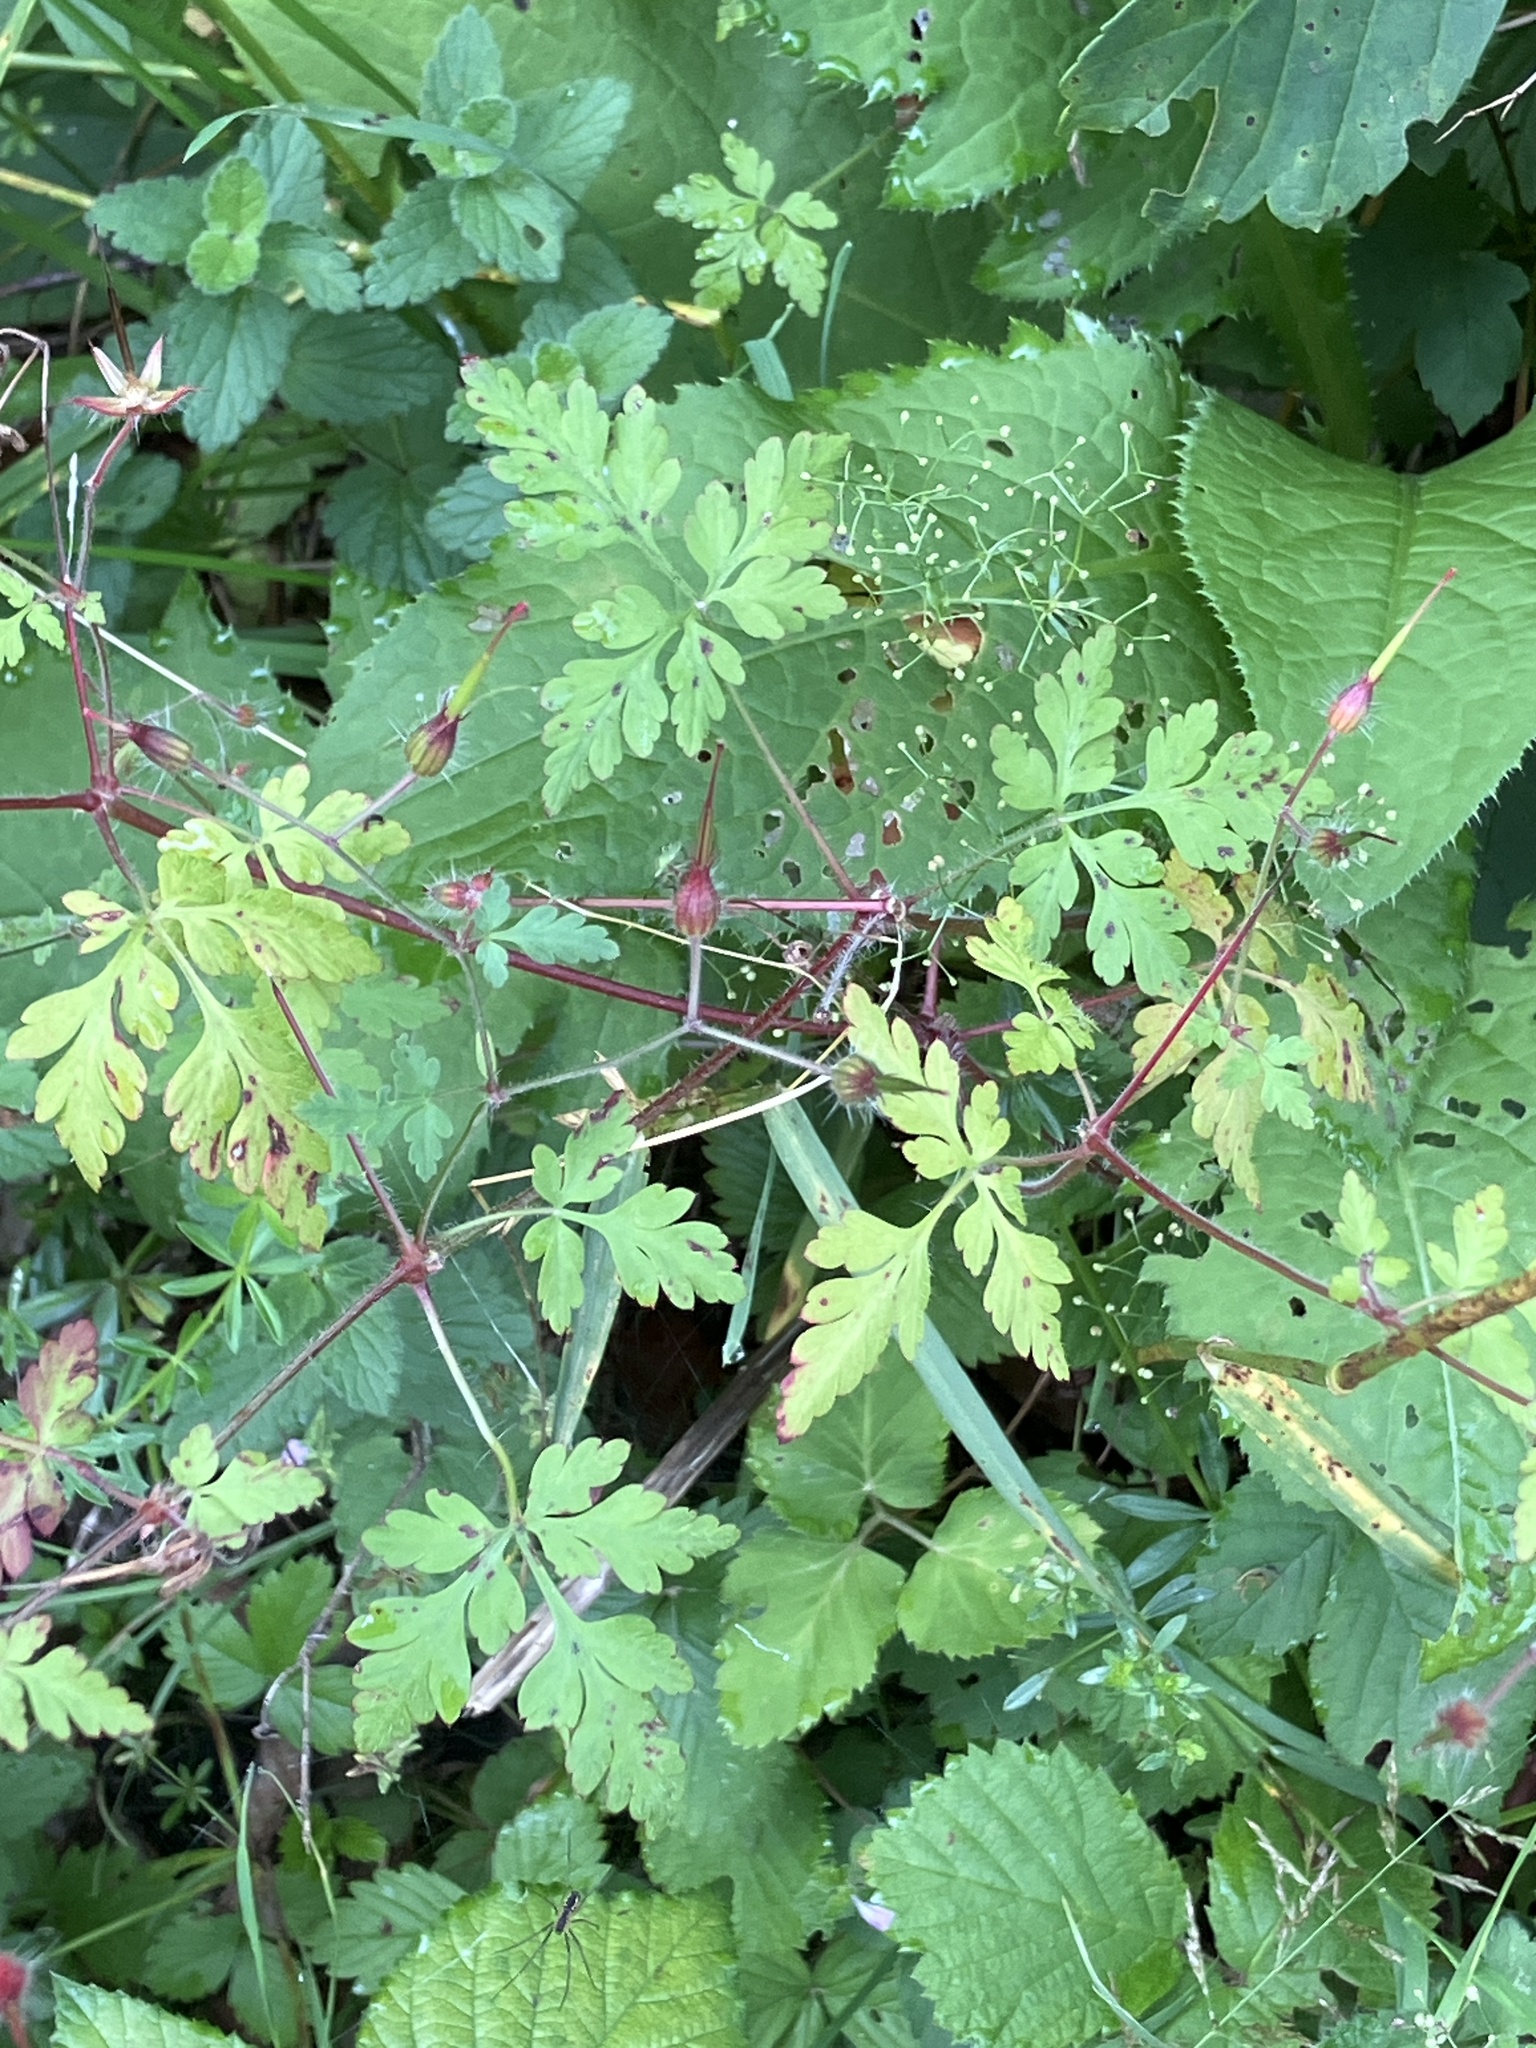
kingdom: Plantae
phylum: Tracheophyta
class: Magnoliopsida
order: Geraniales
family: Geraniaceae
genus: Geranium
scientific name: Geranium robertianum
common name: Herb-robert
